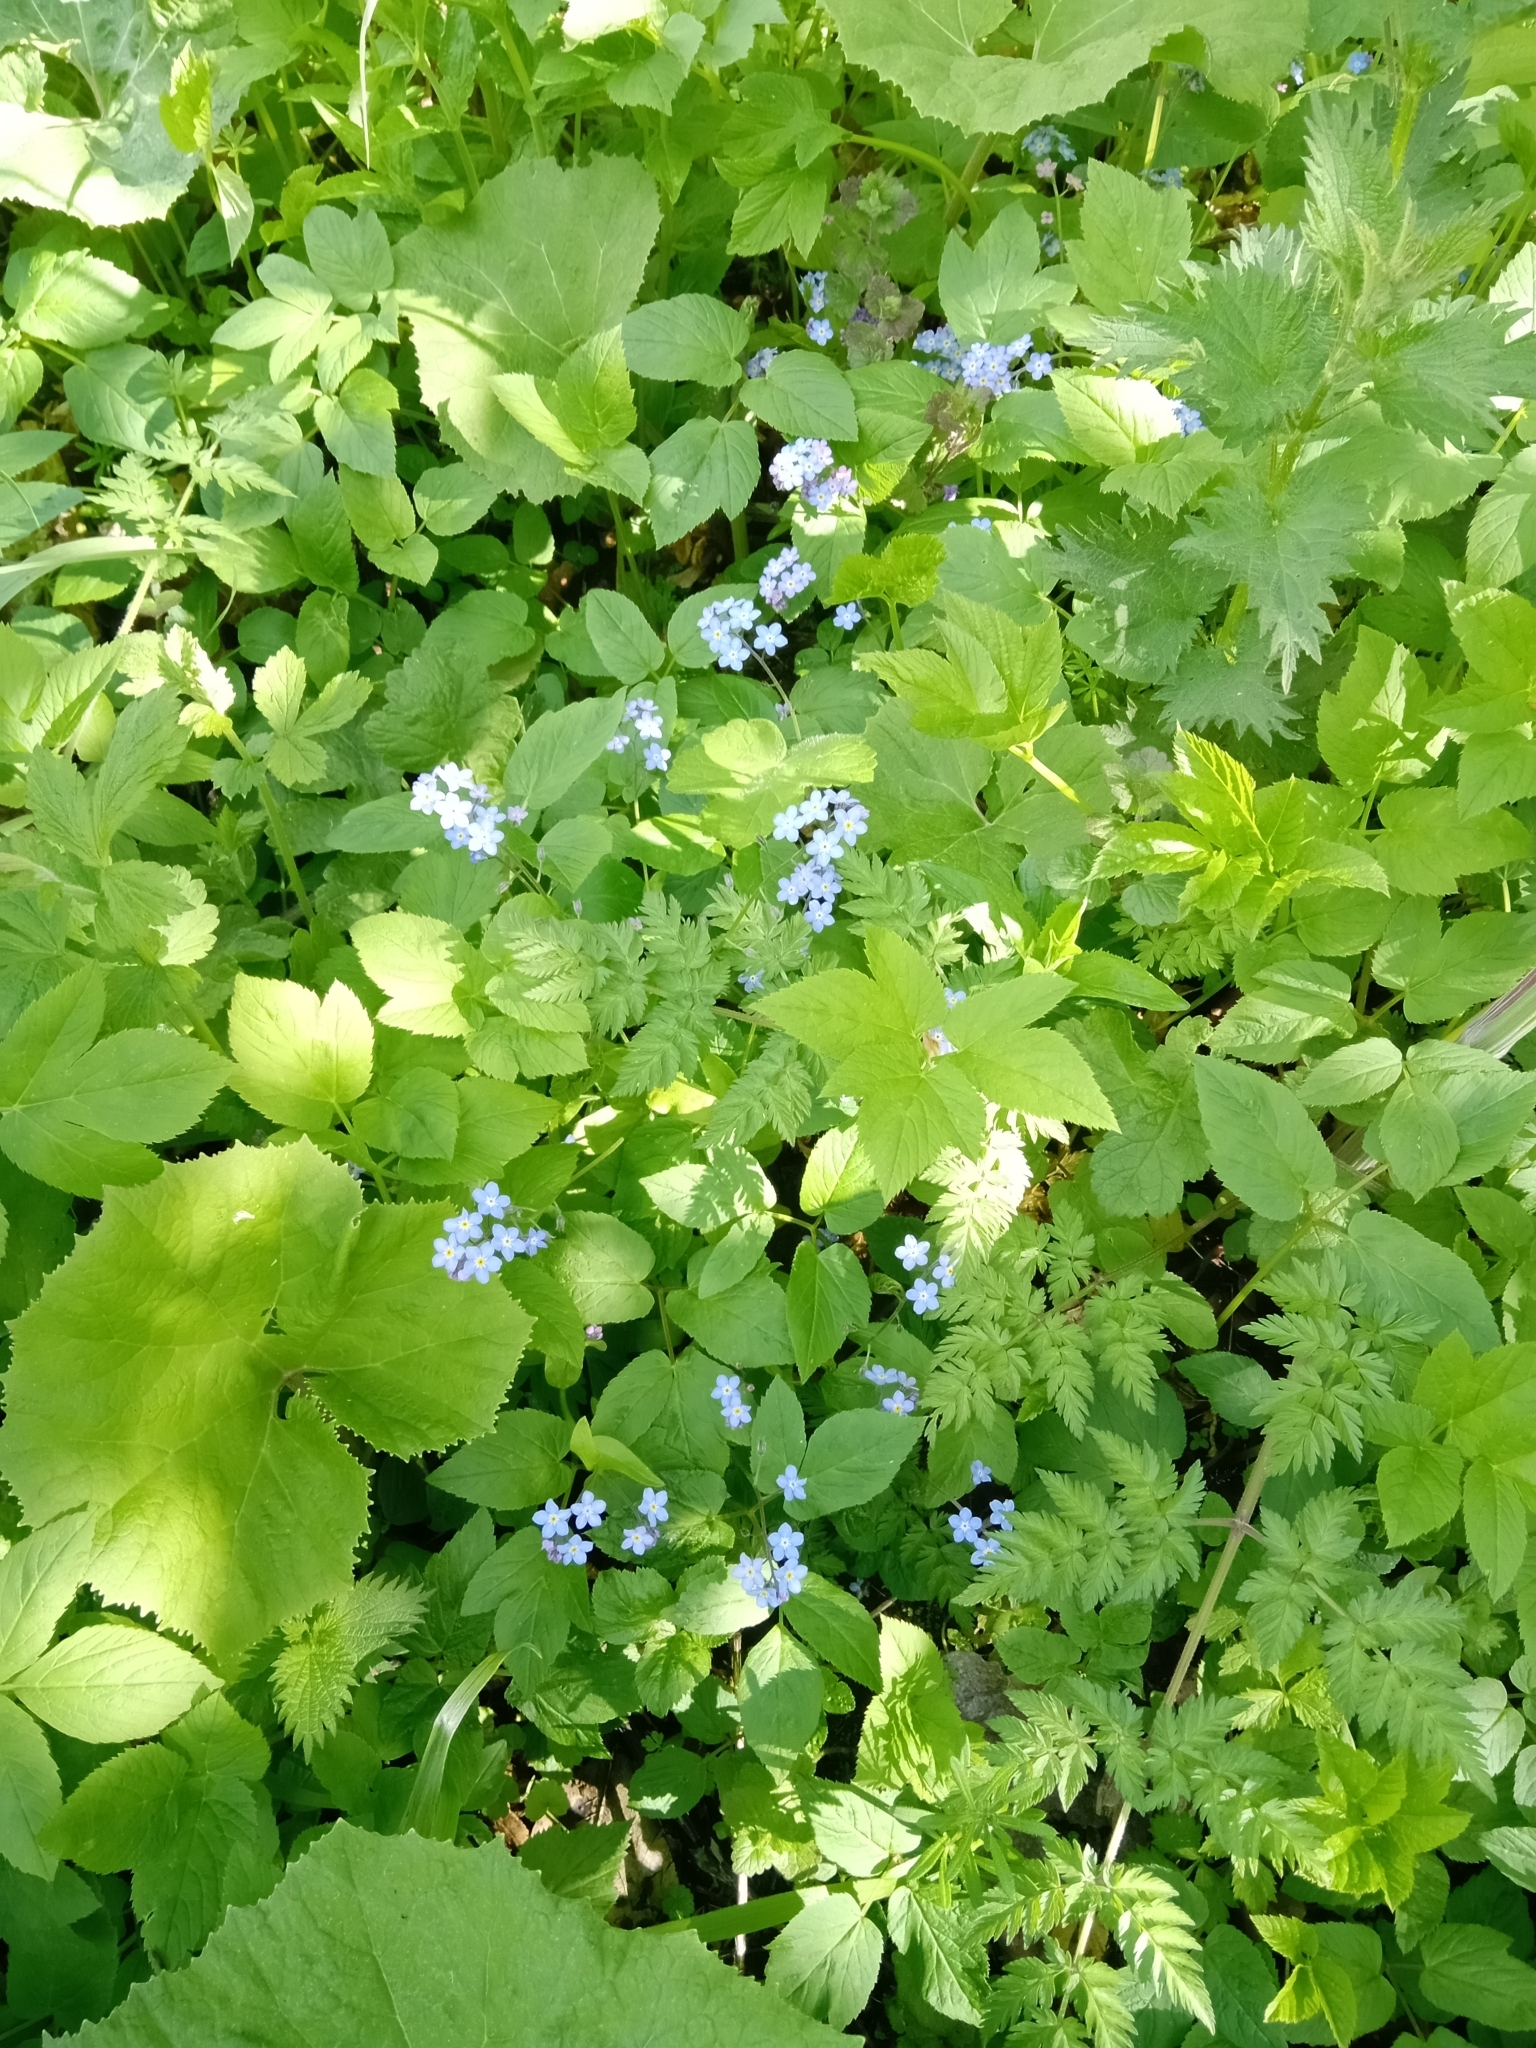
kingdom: Plantae
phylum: Tracheophyta
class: Magnoliopsida
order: Boraginales
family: Boraginaceae
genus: Myosotis
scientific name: Myosotis sylvatica
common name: Wood forget-me-not
